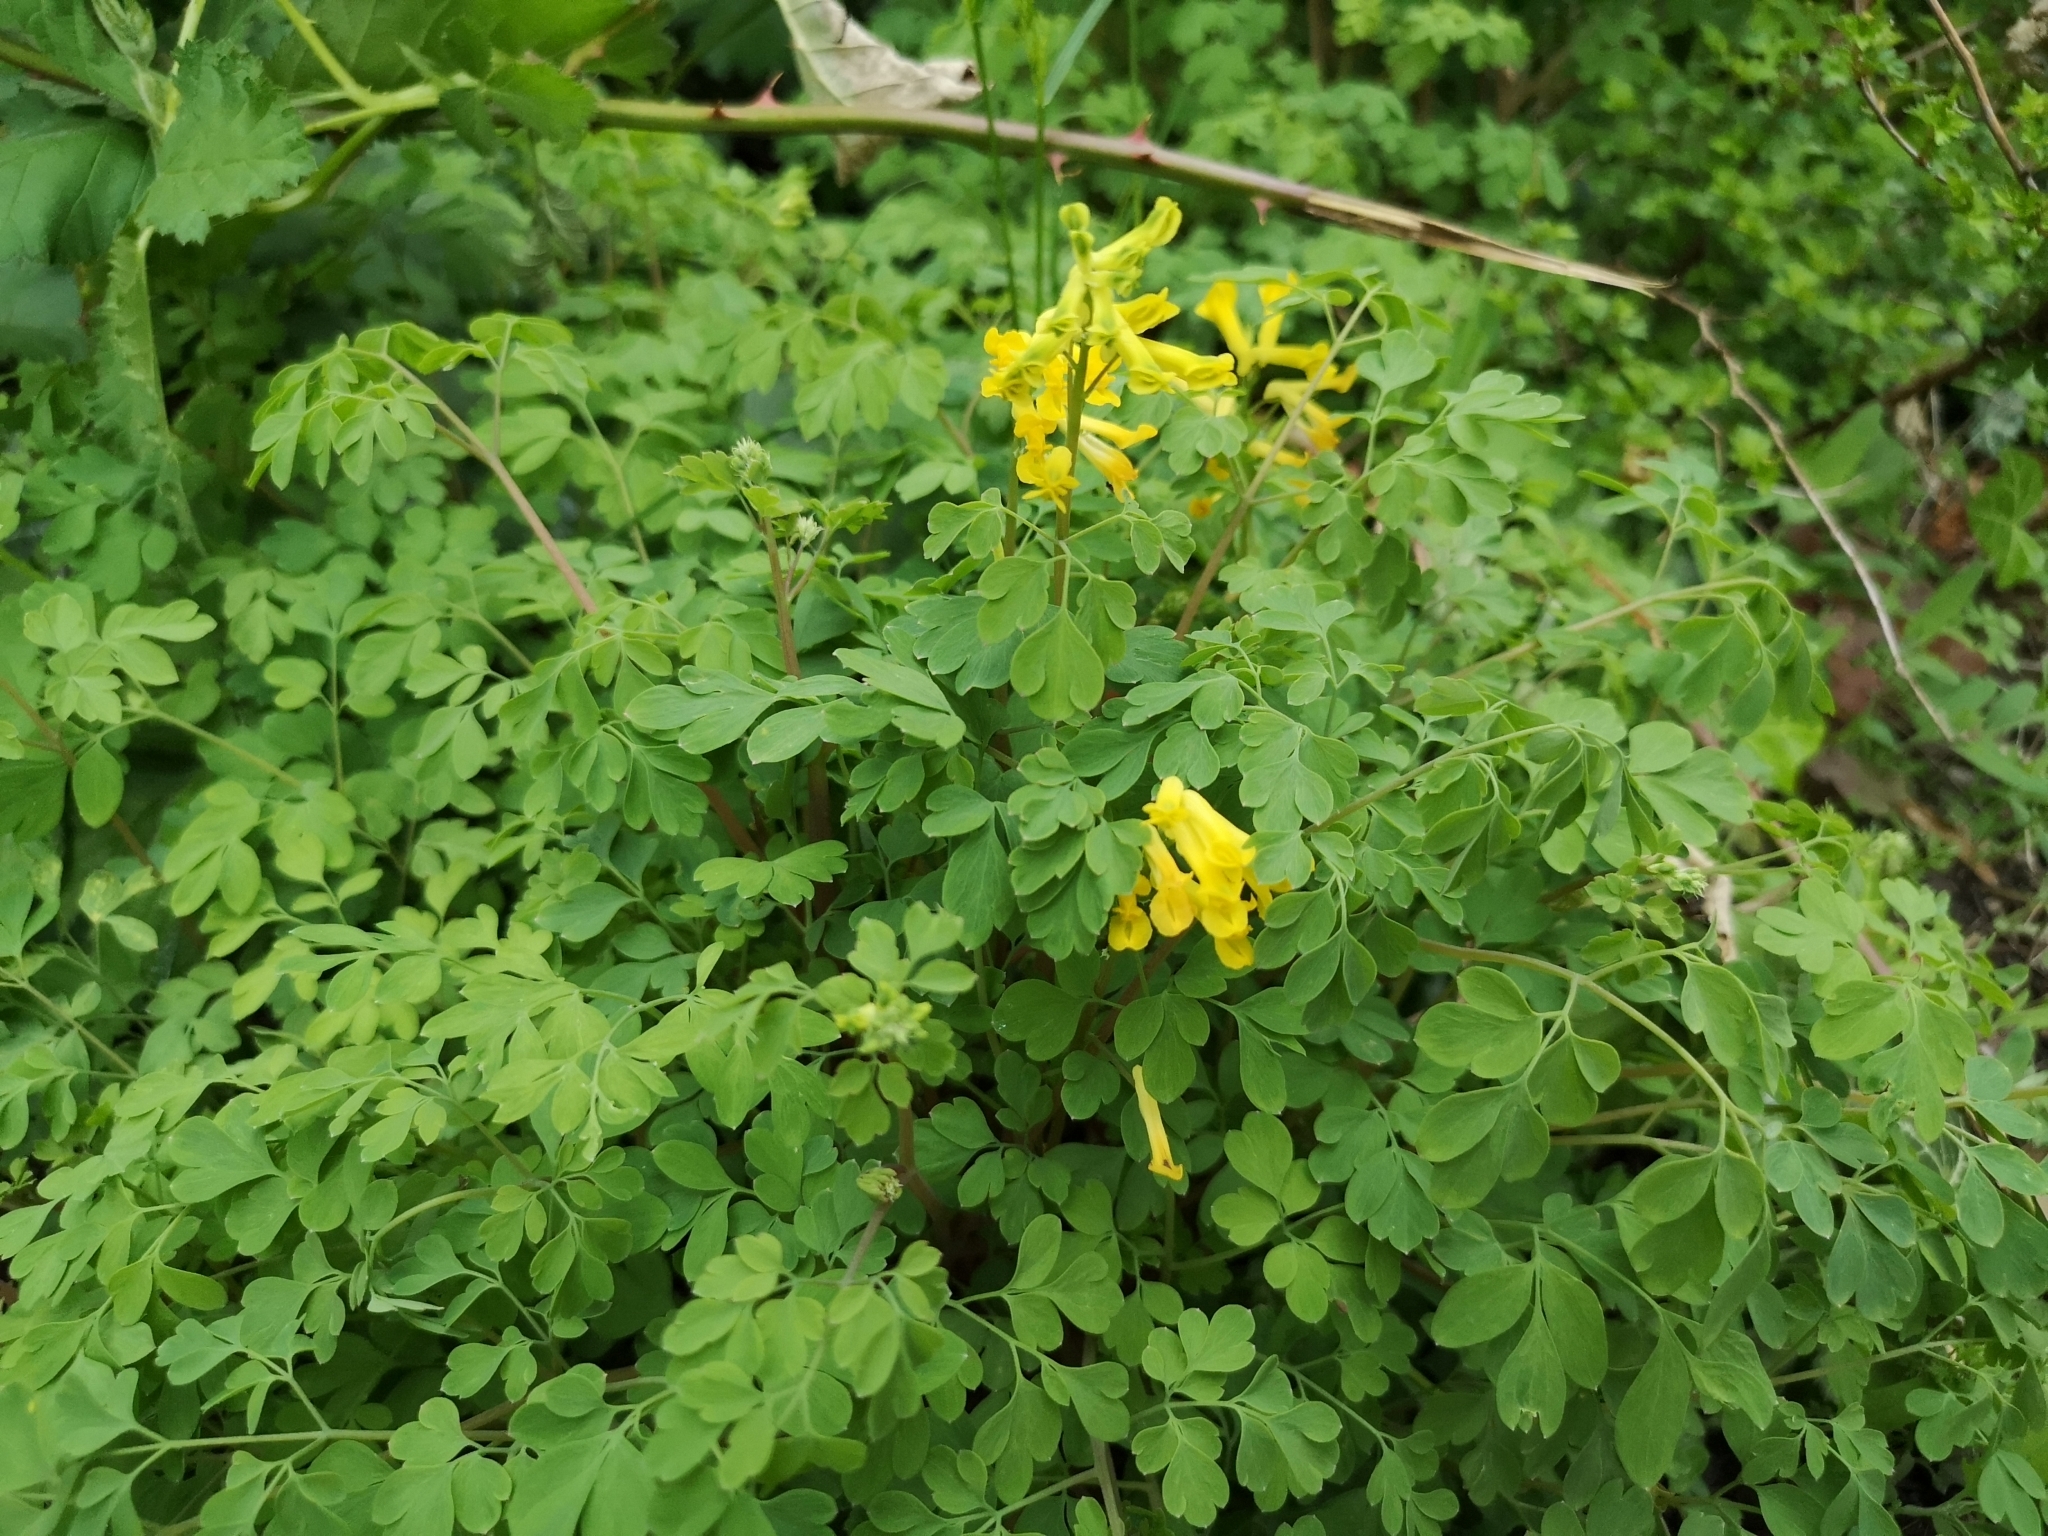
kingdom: Plantae
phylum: Tracheophyta
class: Magnoliopsida
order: Ranunculales
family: Papaveraceae
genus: Pseudofumaria
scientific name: Pseudofumaria lutea
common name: Yellow corydalis
